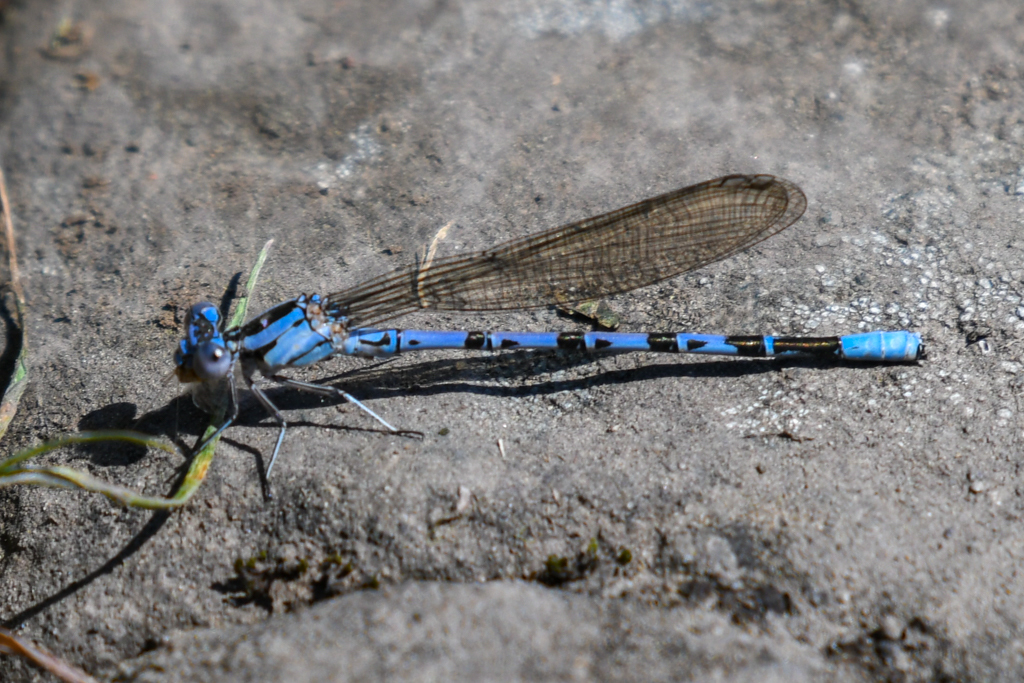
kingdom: Animalia
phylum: Arthropoda
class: Insecta
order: Odonata
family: Coenagrionidae
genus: Argia
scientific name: Argia vivida
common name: Vivid dancer
